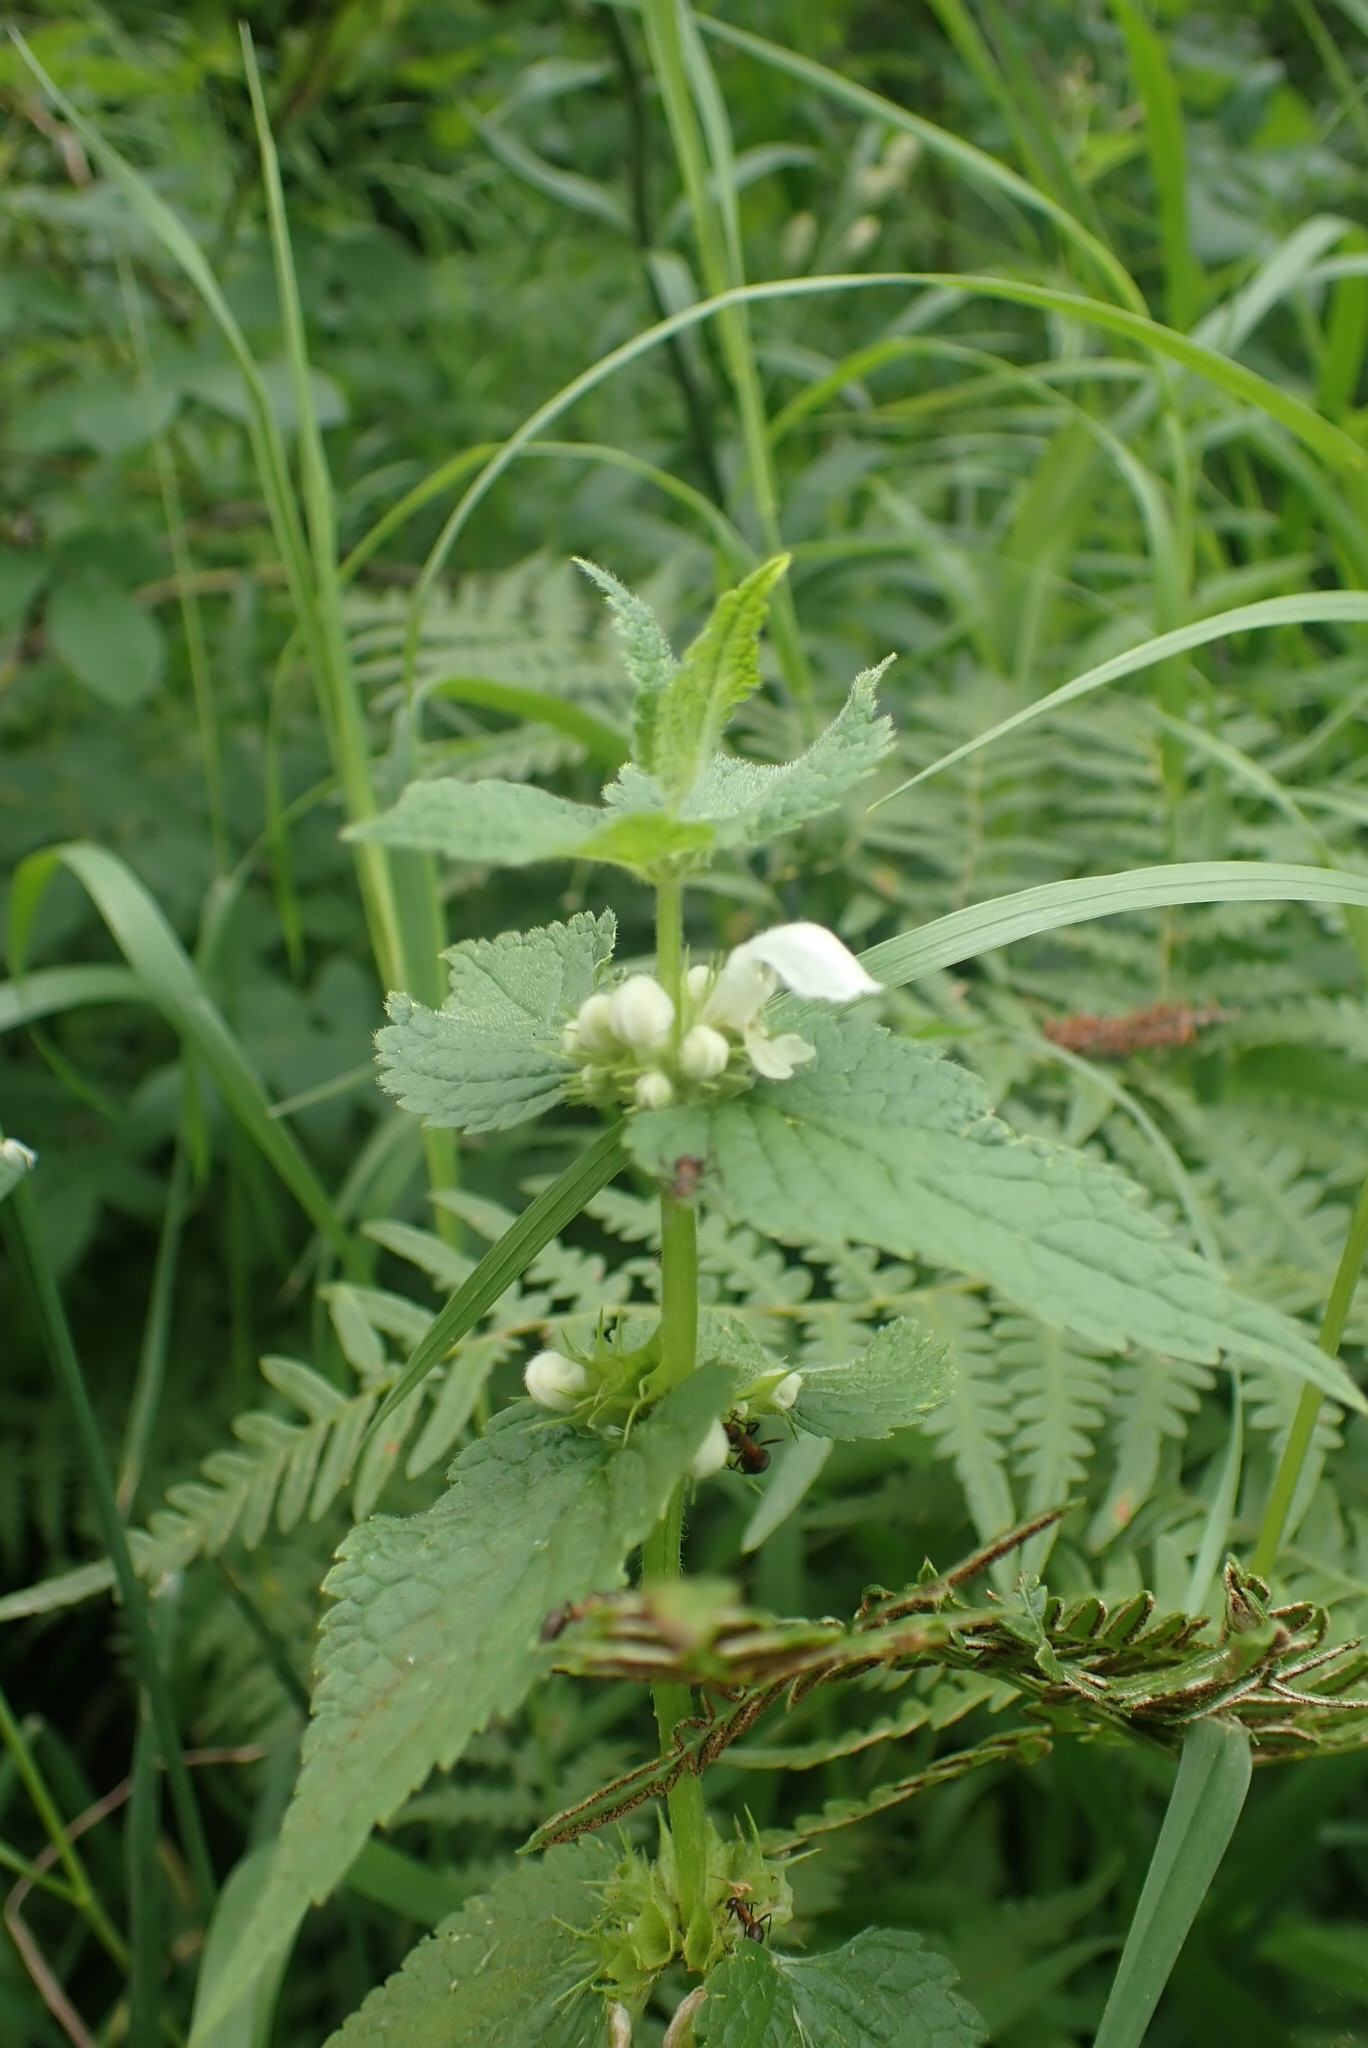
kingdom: Plantae
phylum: Tracheophyta
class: Magnoliopsida
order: Lamiales
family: Lamiaceae
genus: Lamium
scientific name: Lamium album
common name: White dead-nettle
